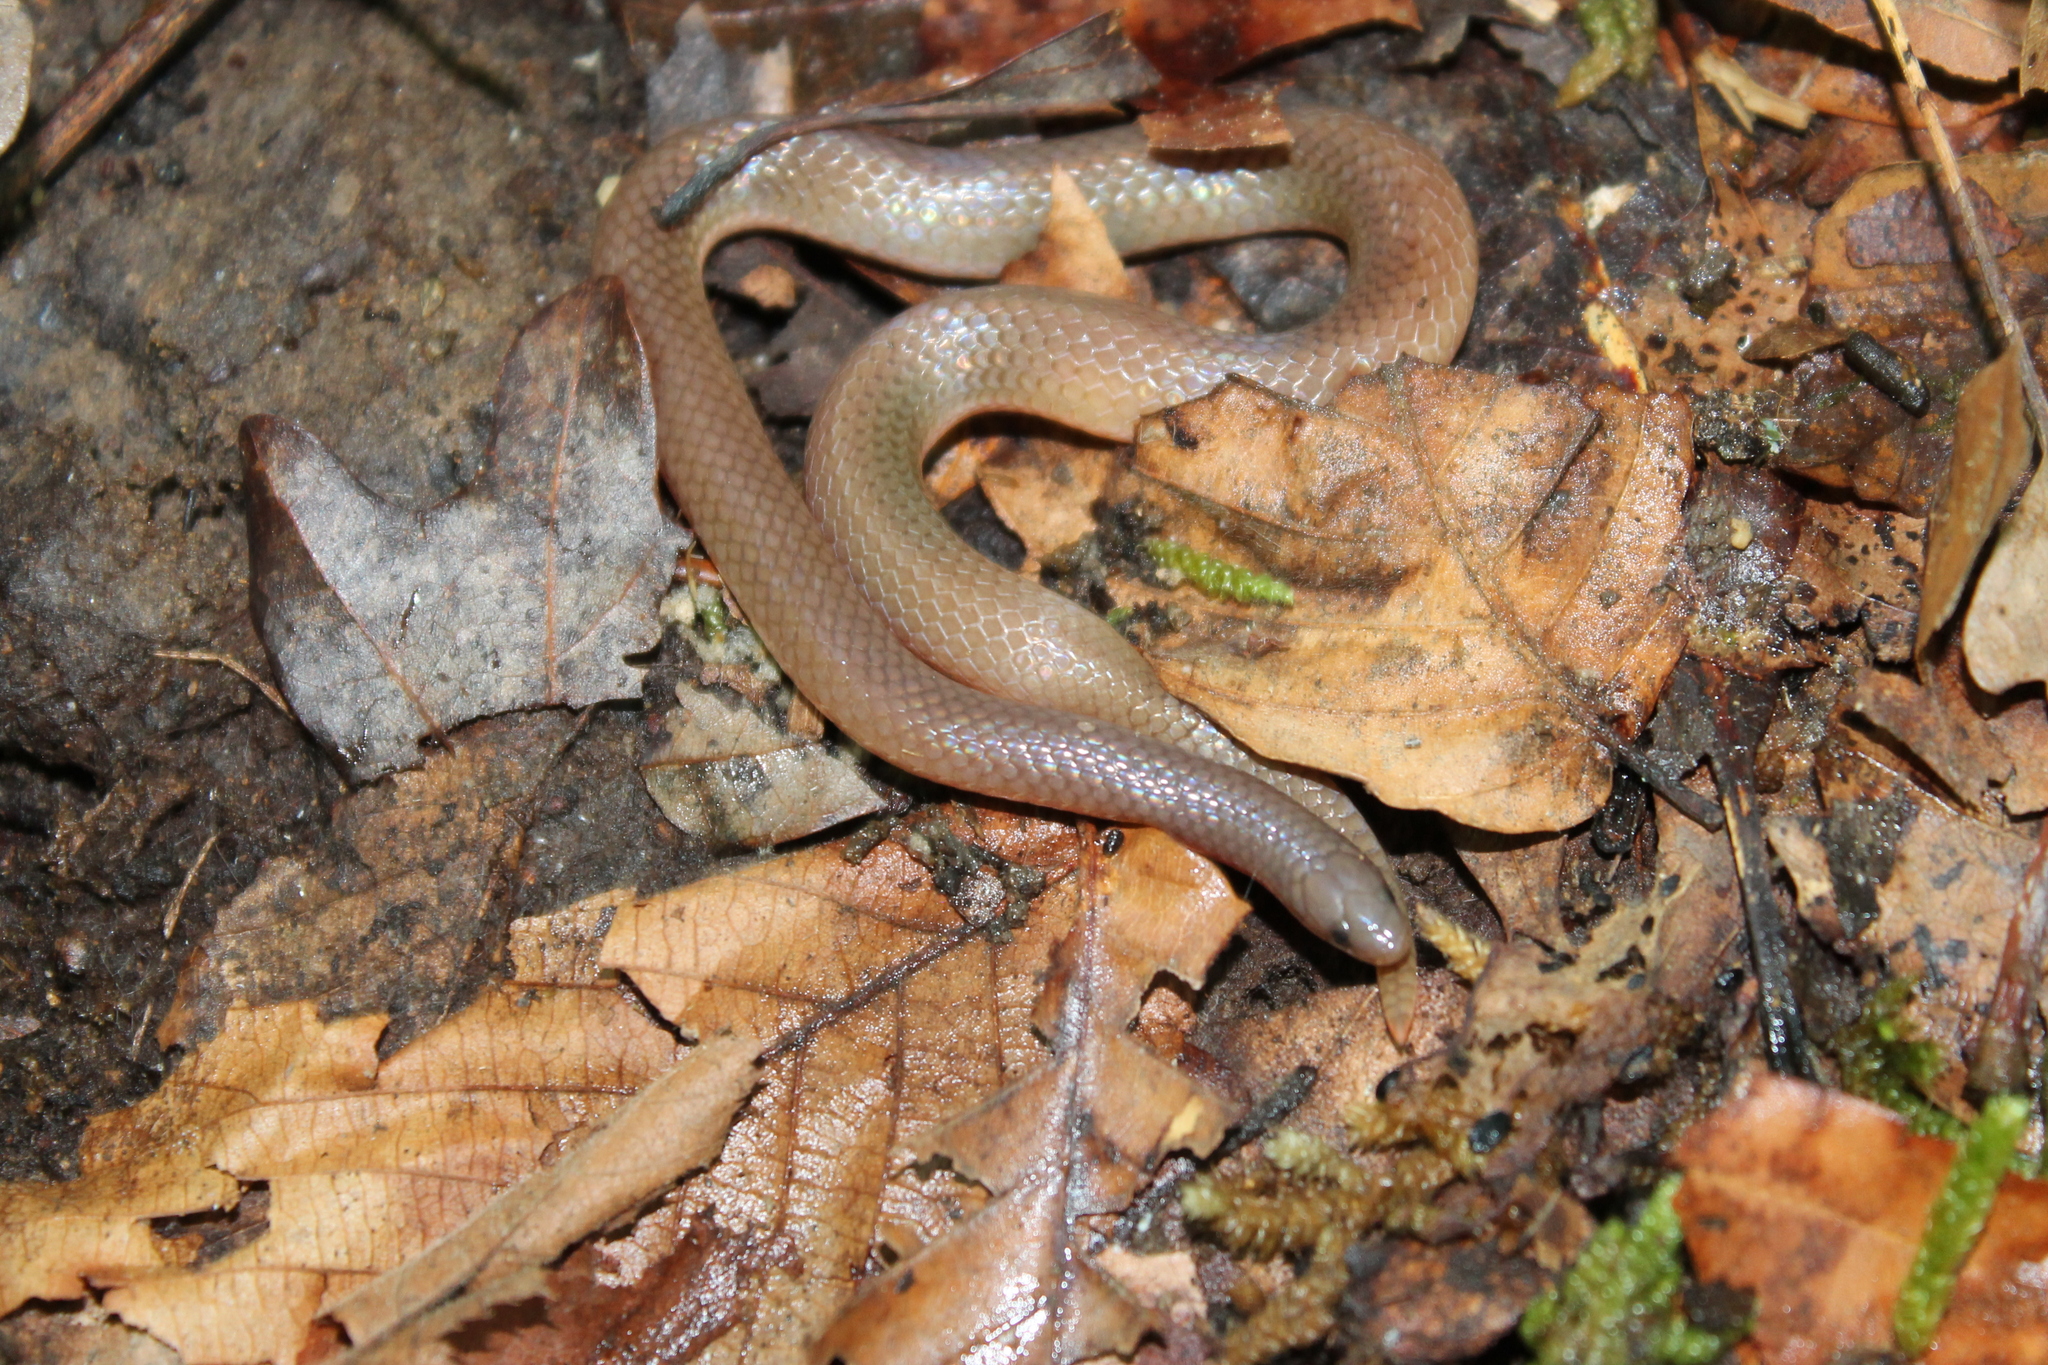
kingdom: Animalia
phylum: Chordata
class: Squamata
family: Colubridae
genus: Carphophis
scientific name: Carphophis amoenus
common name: Eastern worm snake
